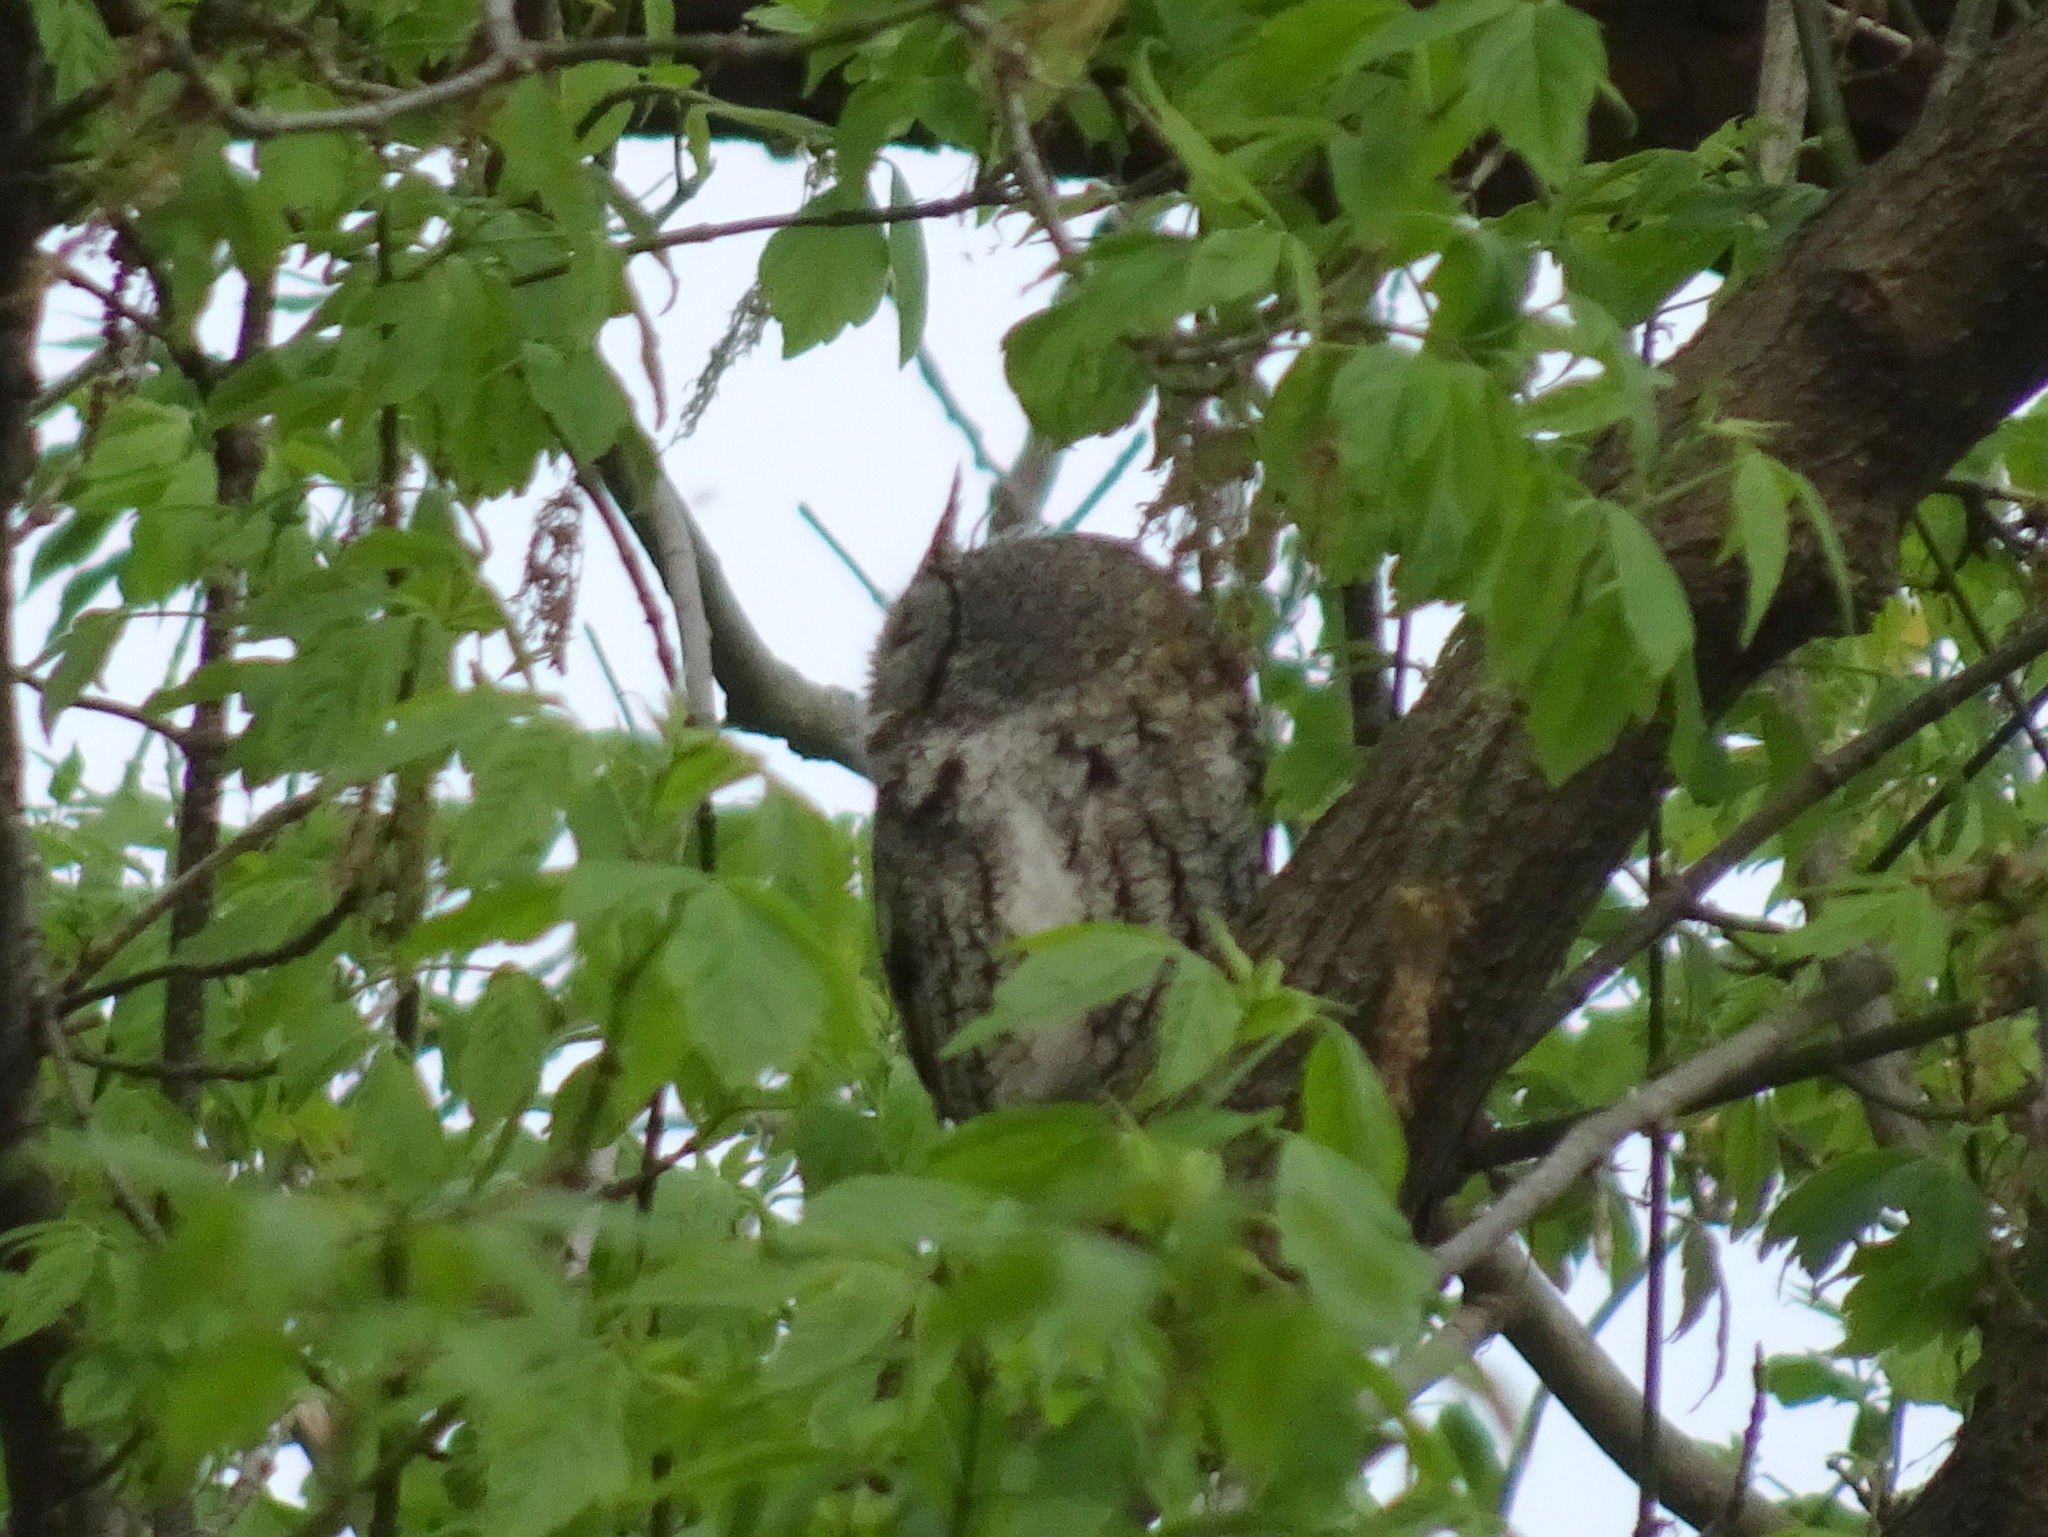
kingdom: Animalia
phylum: Chordata
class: Aves
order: Strigiformes
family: Strigidae
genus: Megascops
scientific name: Megascops asio
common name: Eastern screech-owl
